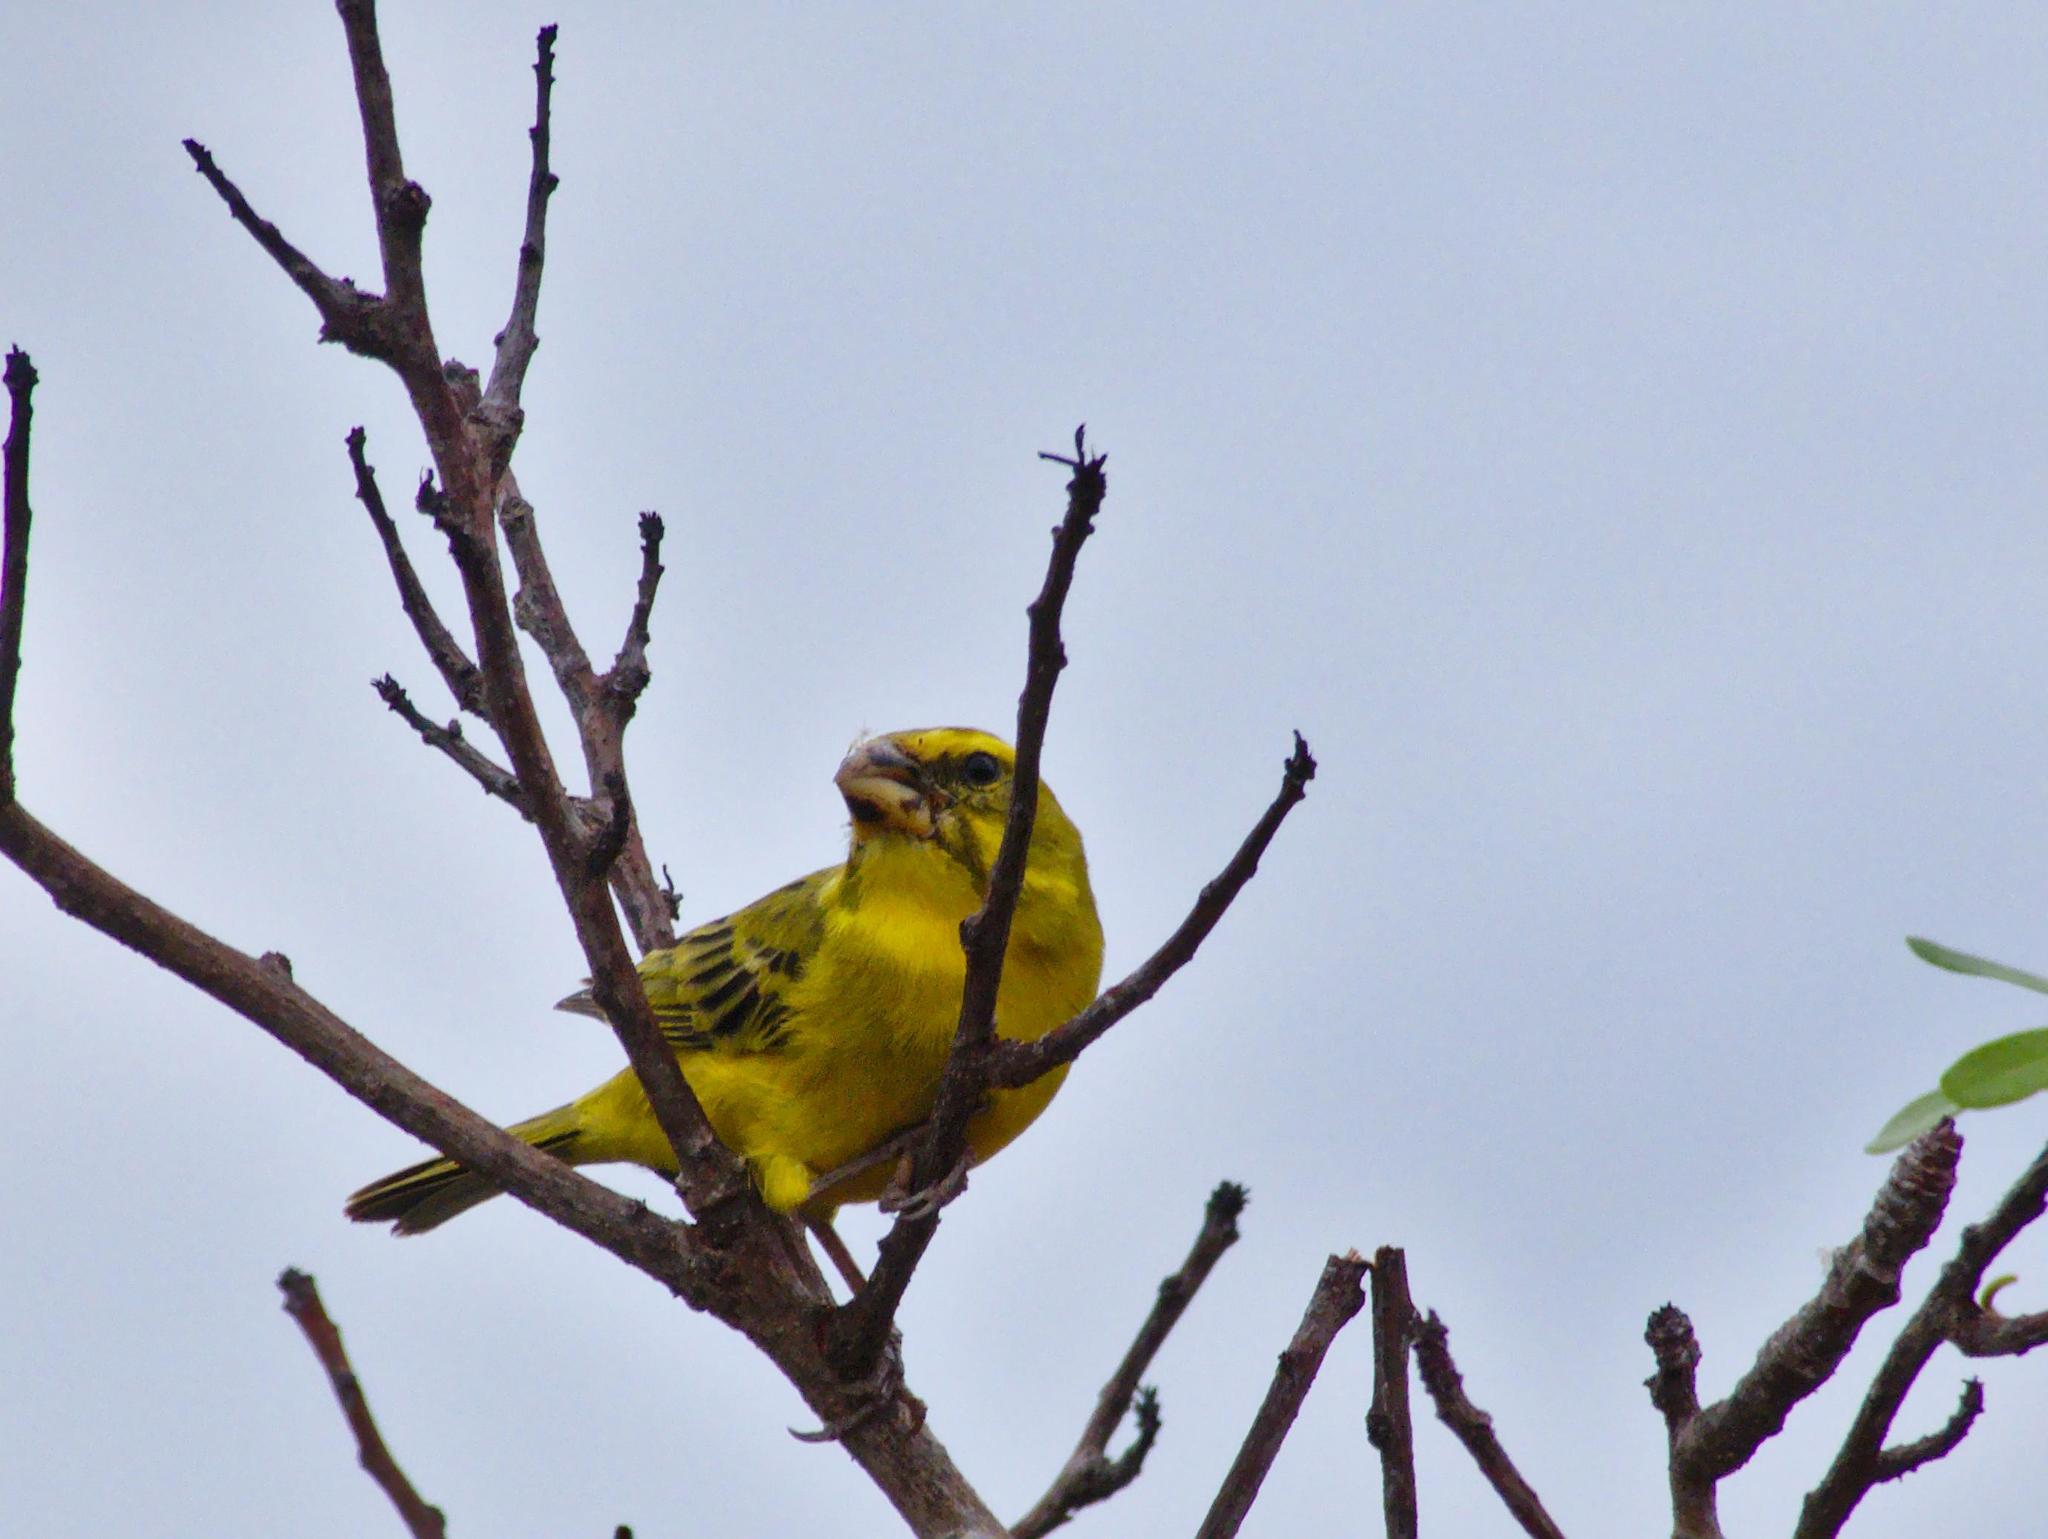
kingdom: Animalia
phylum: Chordata
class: Aves
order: Passeriformes
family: Fringillidae
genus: Crithagra
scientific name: Crithagra sulphurata
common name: Brimstone canary
